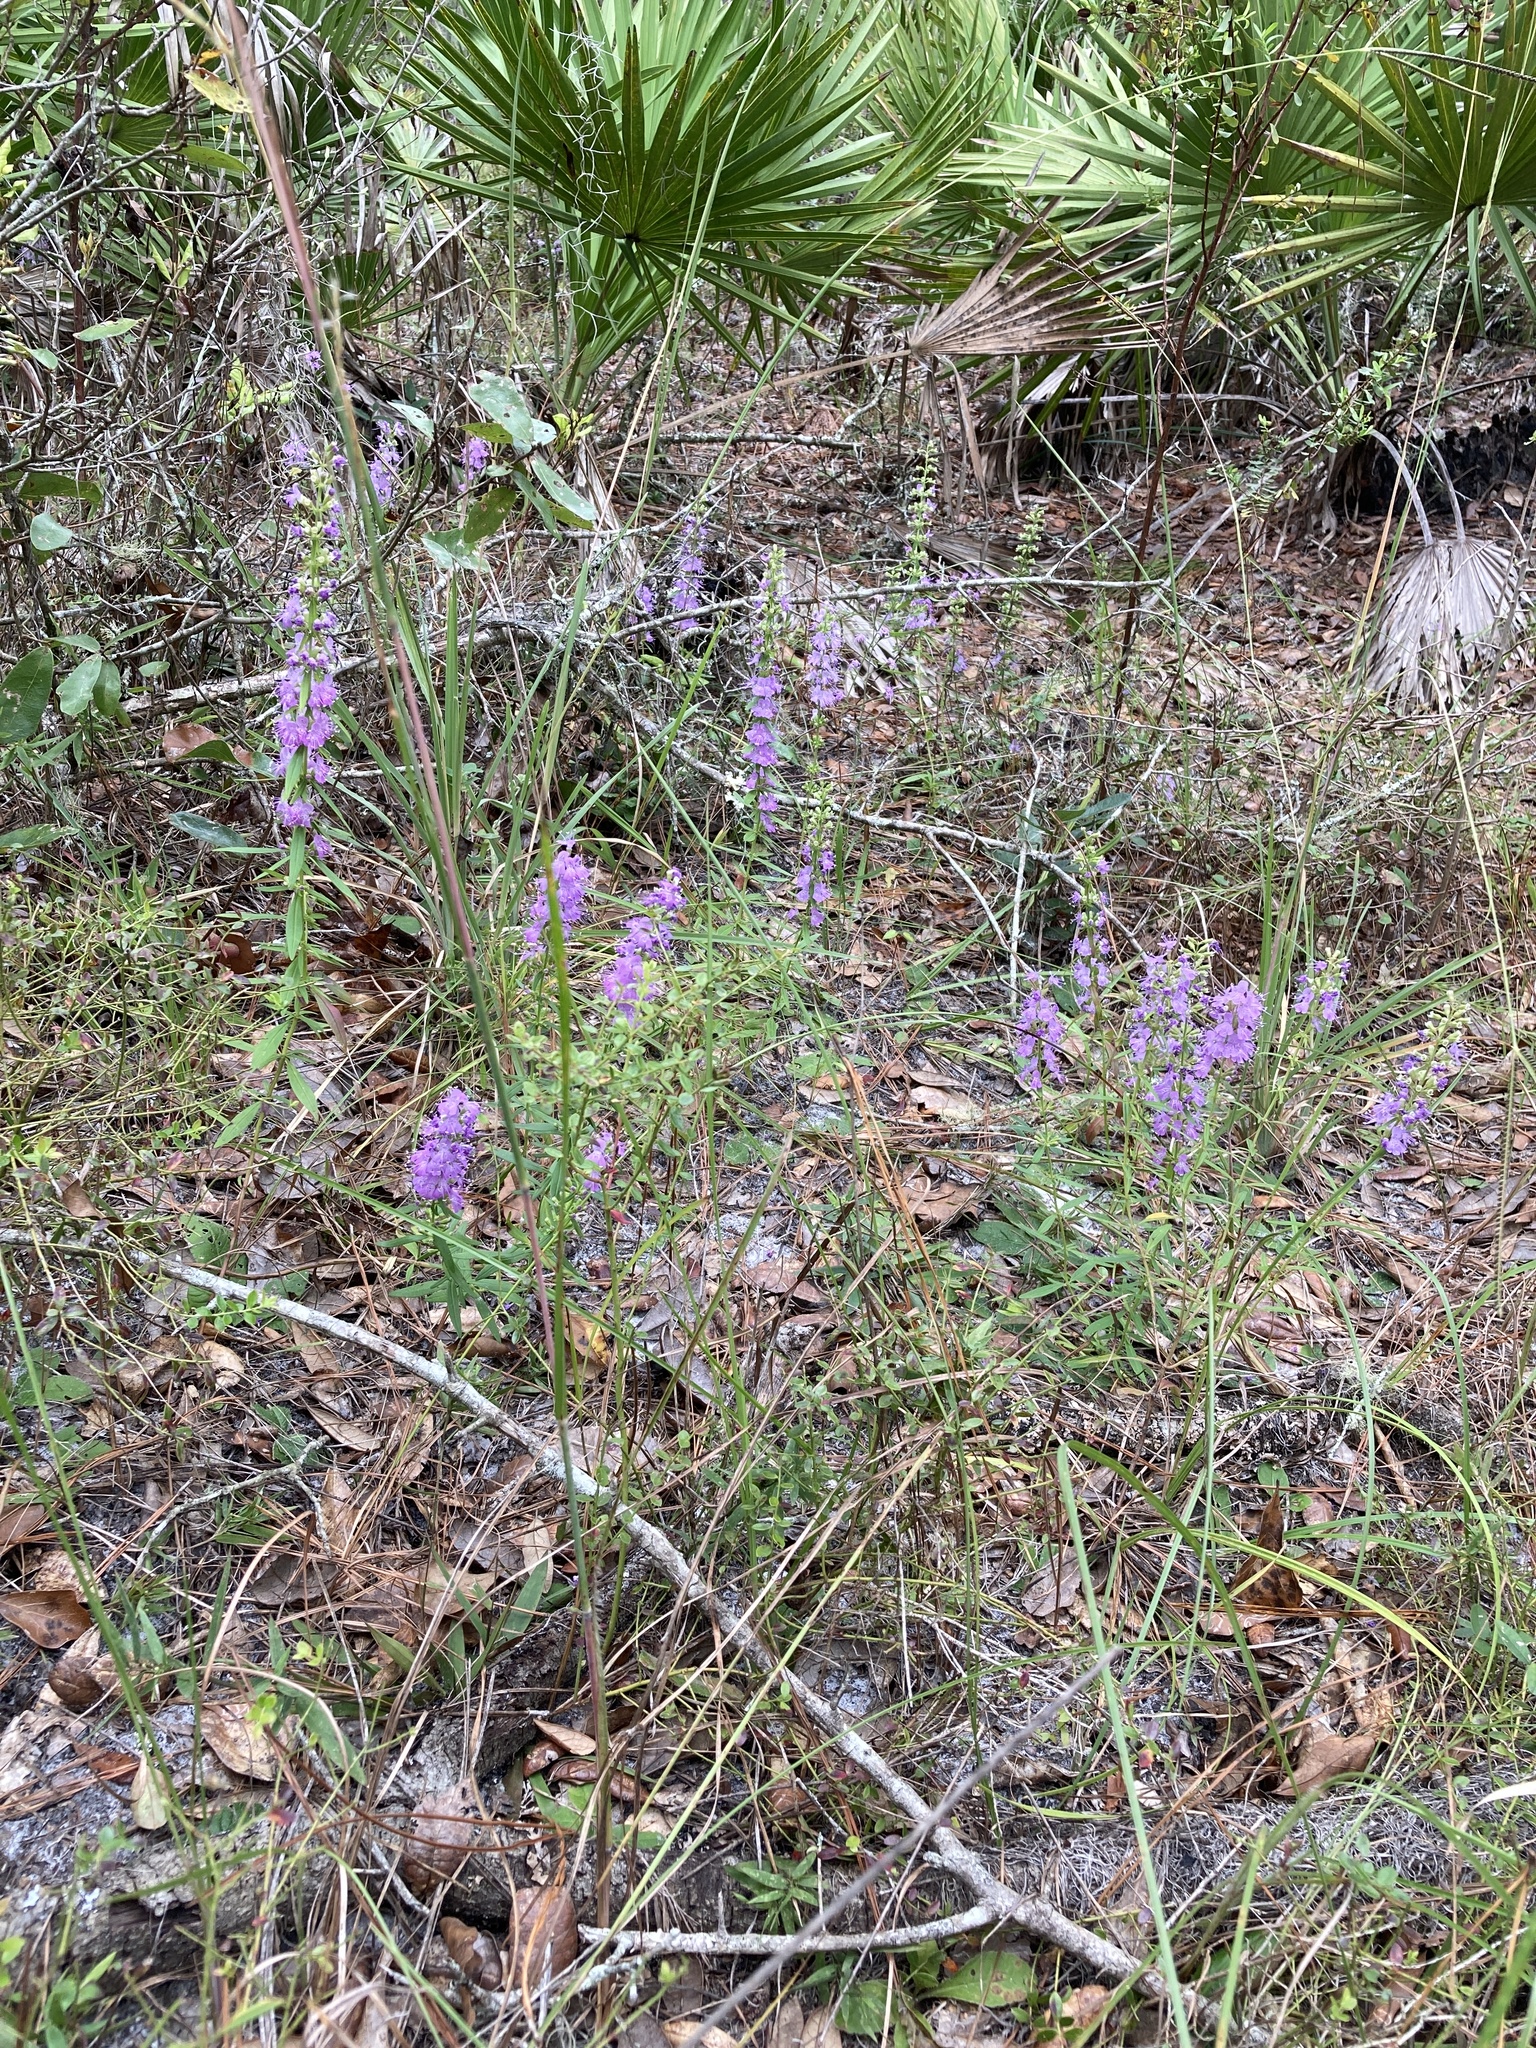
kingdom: Plantae
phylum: Tracheophyta
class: Magnoliopsida
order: Lamiales
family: Lamiaceae
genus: Dicerandra
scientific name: Dicerandra densiflora
